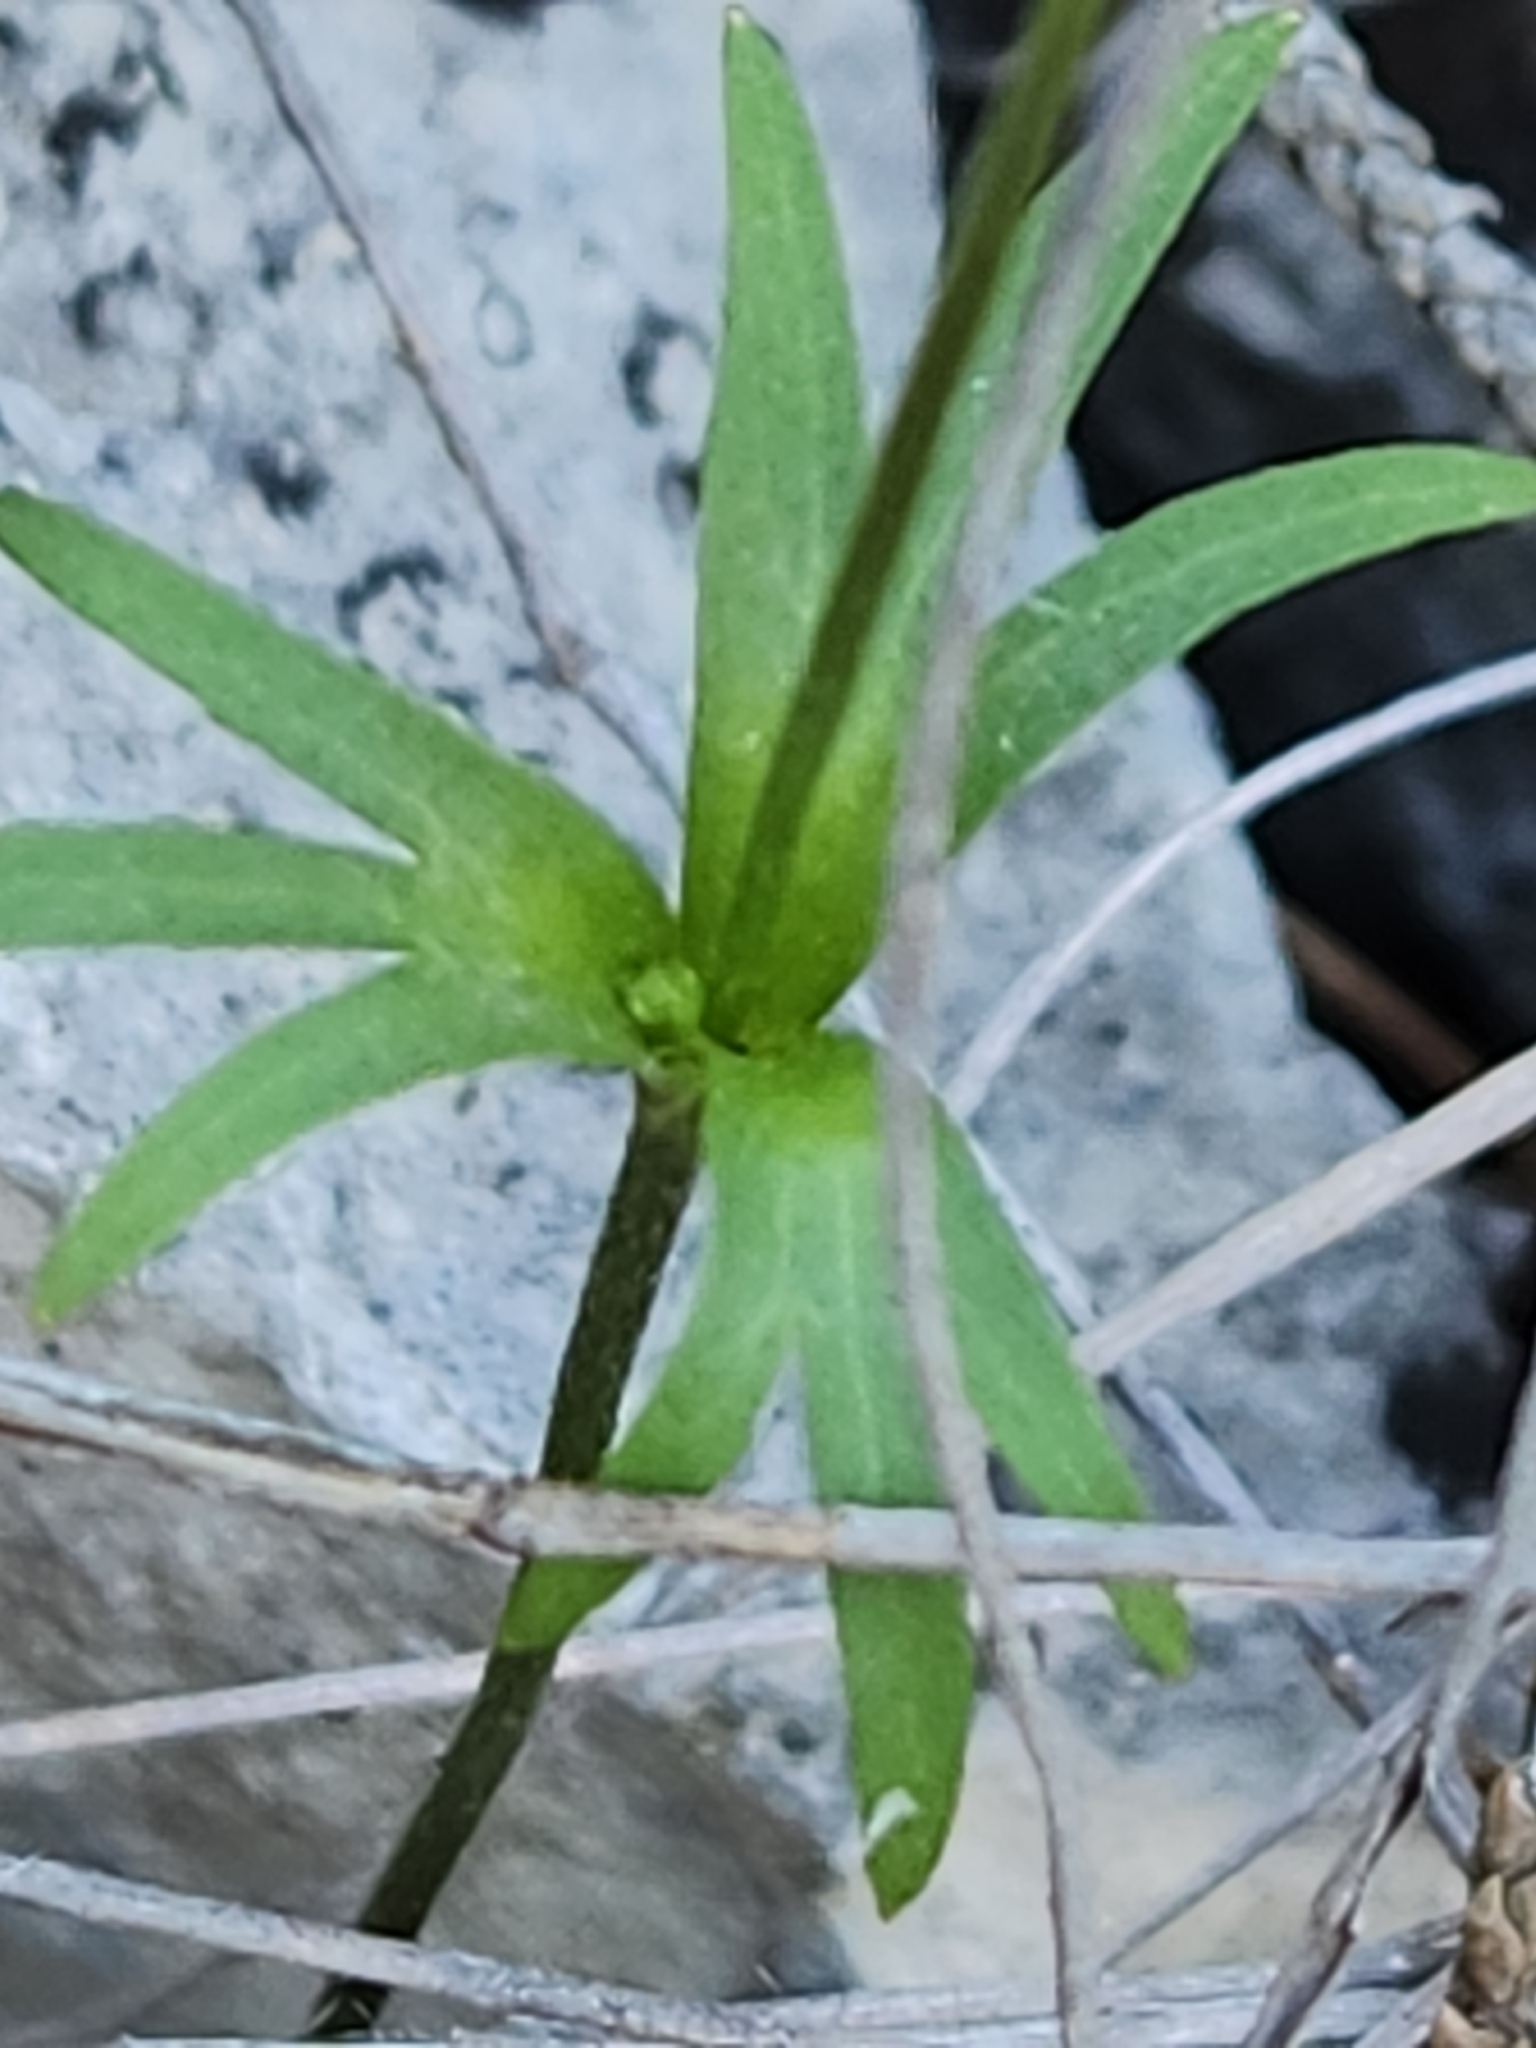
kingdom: Plantae
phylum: Tracheophyta
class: Magnoliopsida
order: Ranunculales
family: Ranunculaceae
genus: Anemone
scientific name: Anemone edwardsiana
